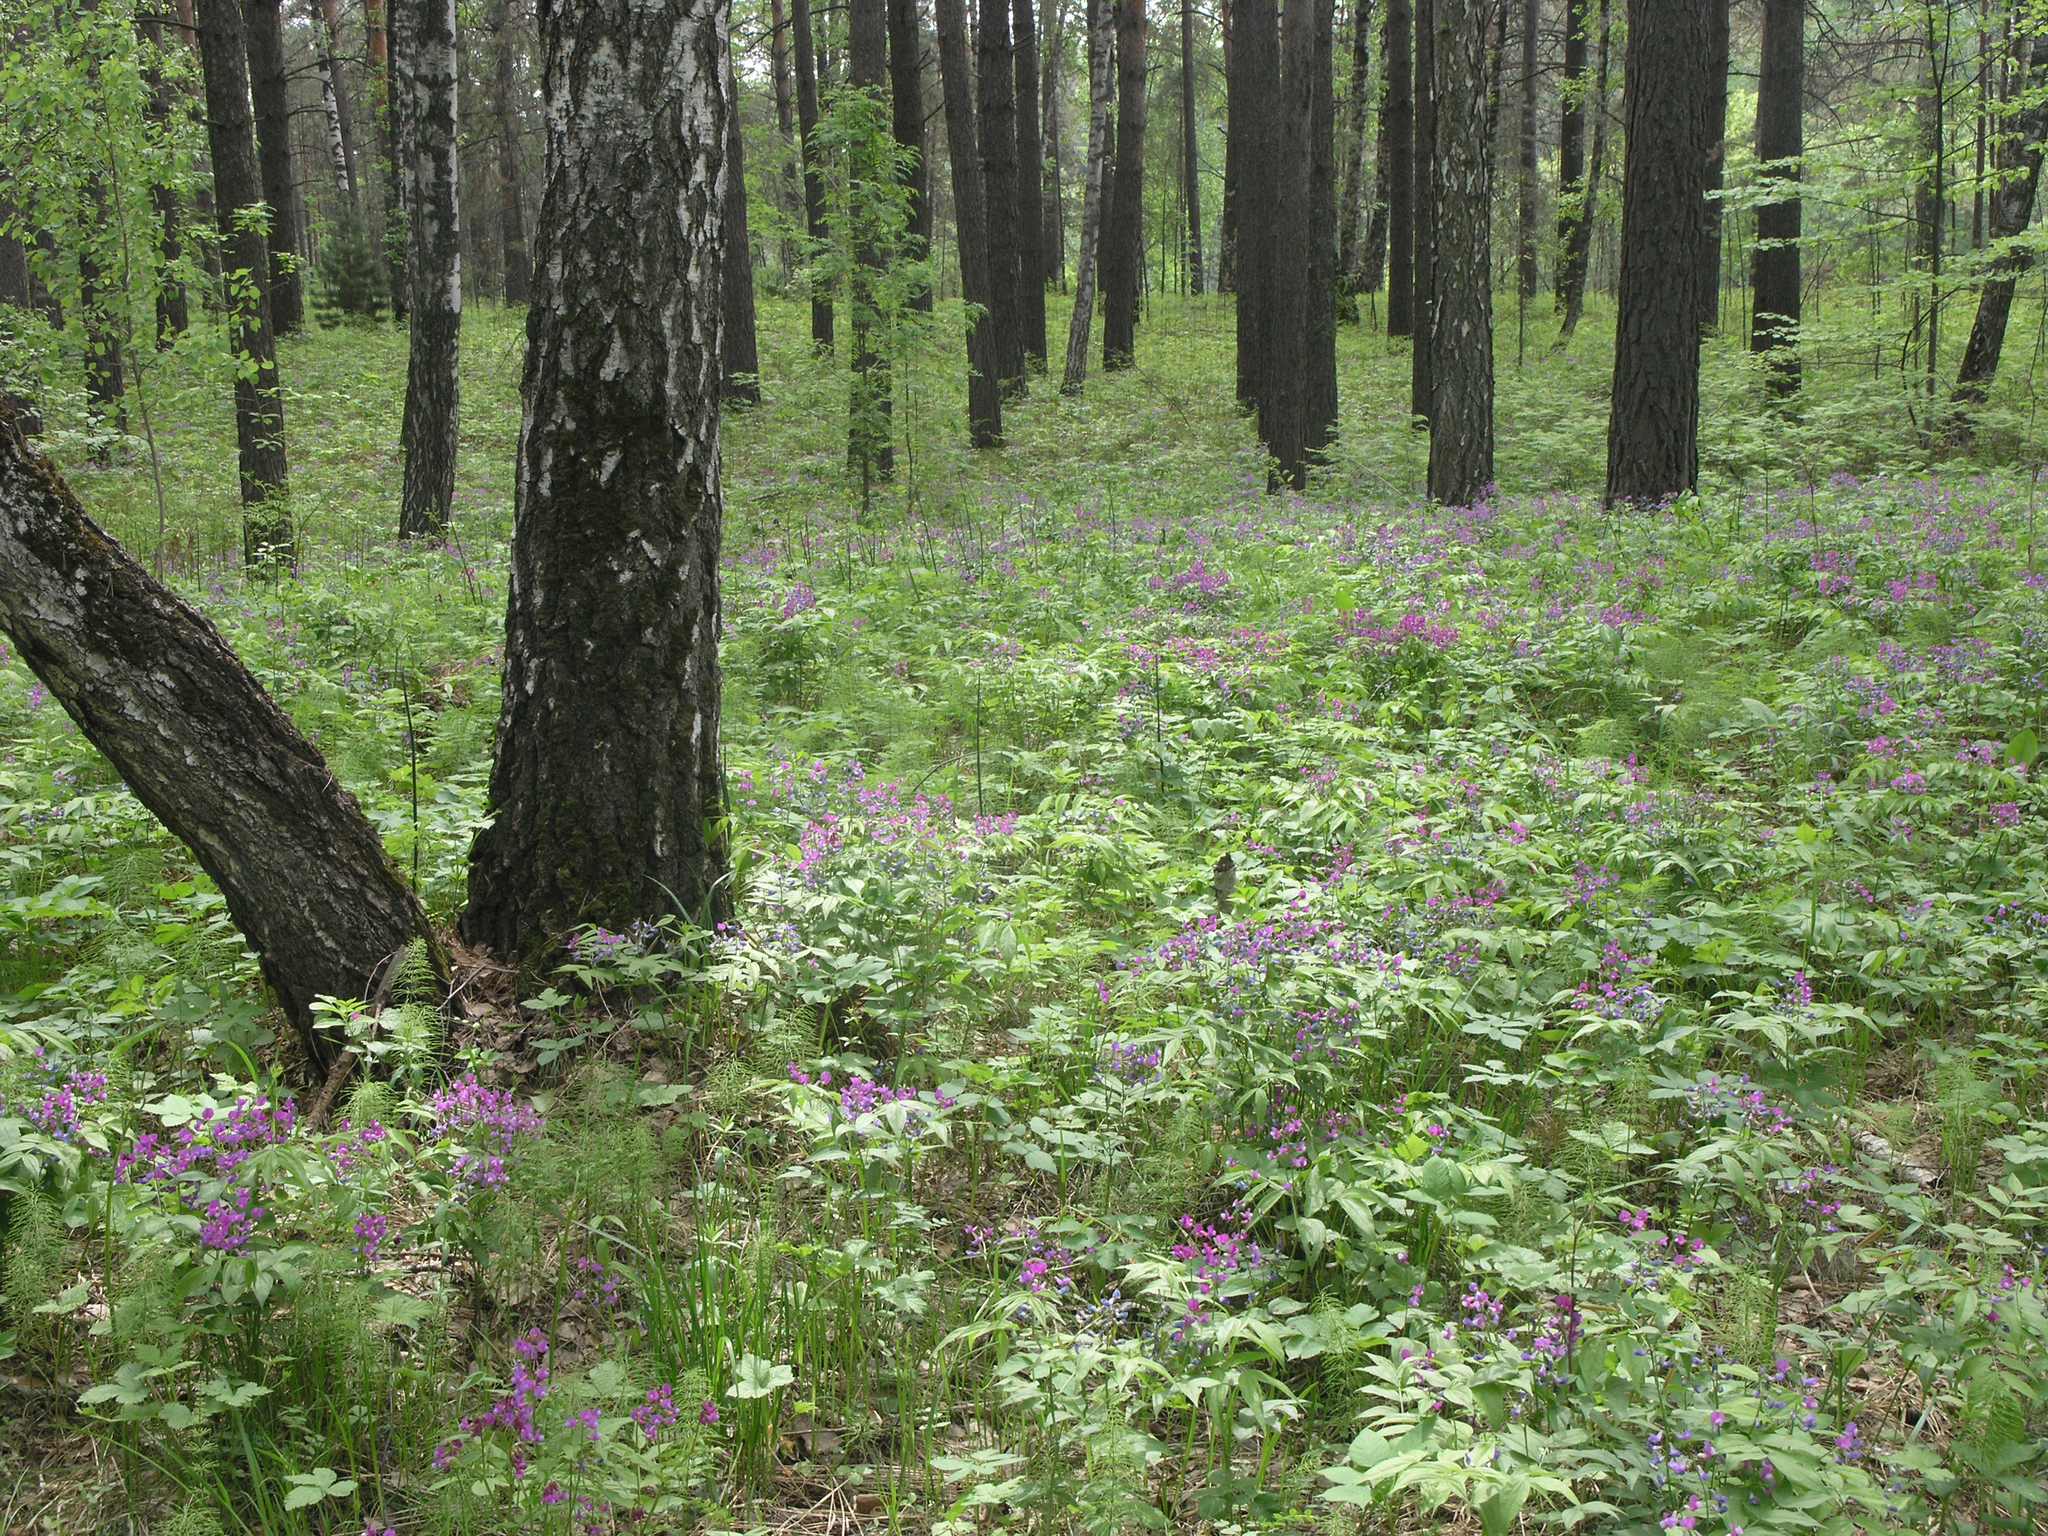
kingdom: Plantae
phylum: Tracheophyta
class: Magnoliopsida
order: Fabales
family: Fabaceae
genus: Lathyrus
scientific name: Lathyrus vernus
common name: Spring pea
